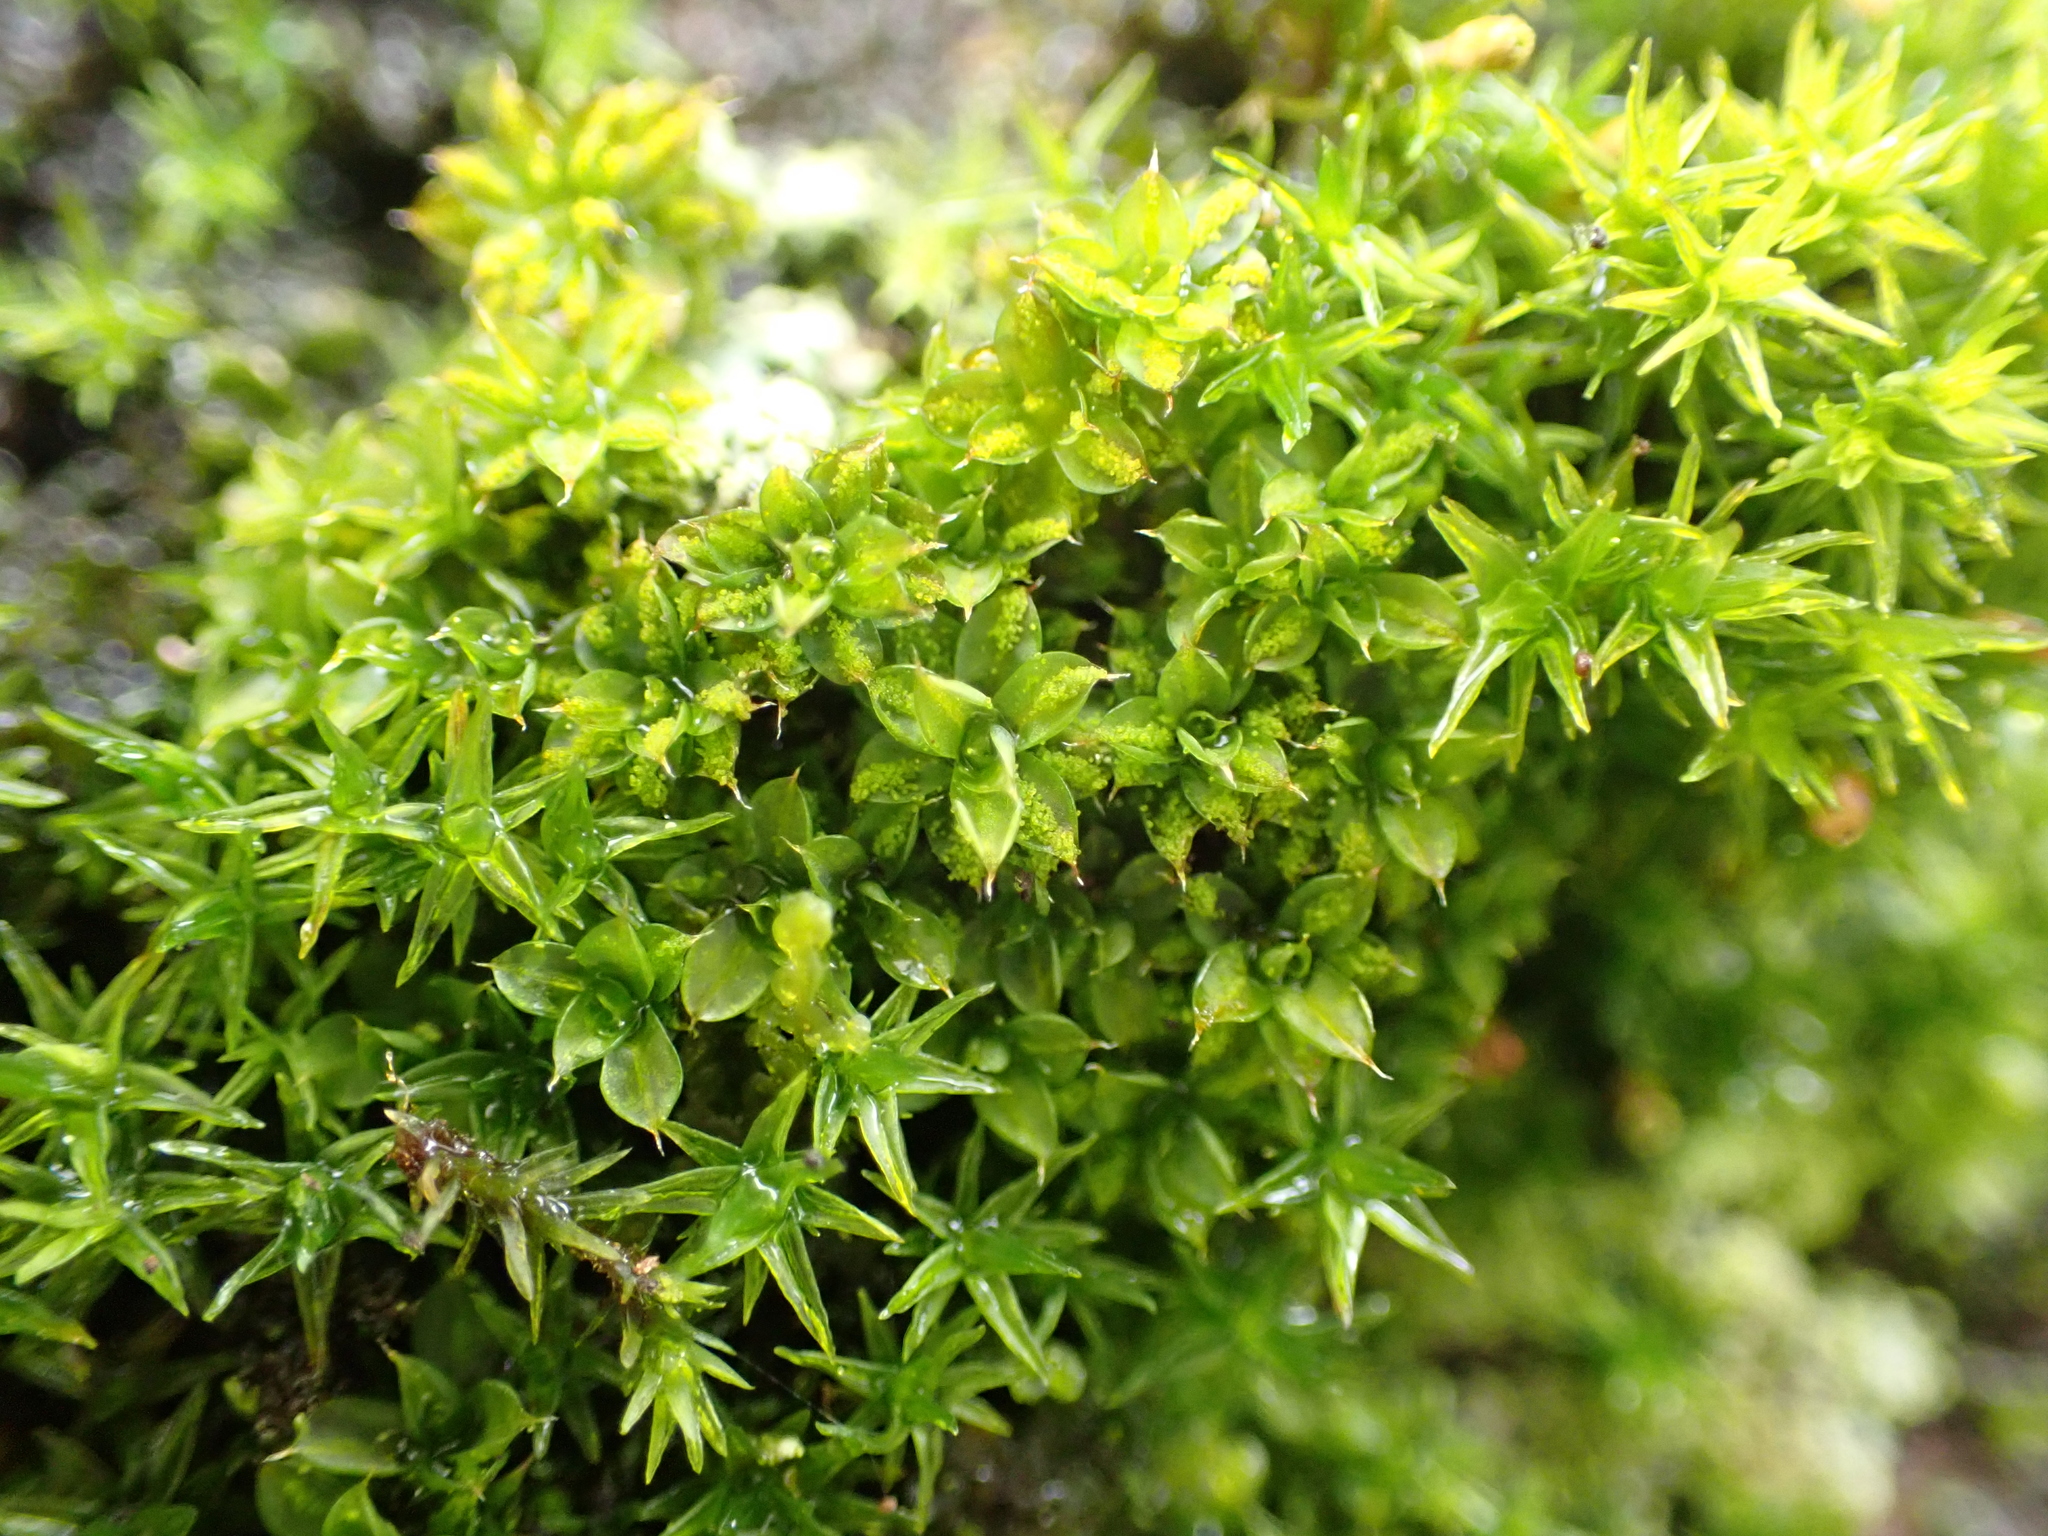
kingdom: Plantae
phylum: Bryophyta
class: Bryopsida
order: Pottiales
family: Pottiaceae
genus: Syntrichia
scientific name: Syntrichia papillosa
